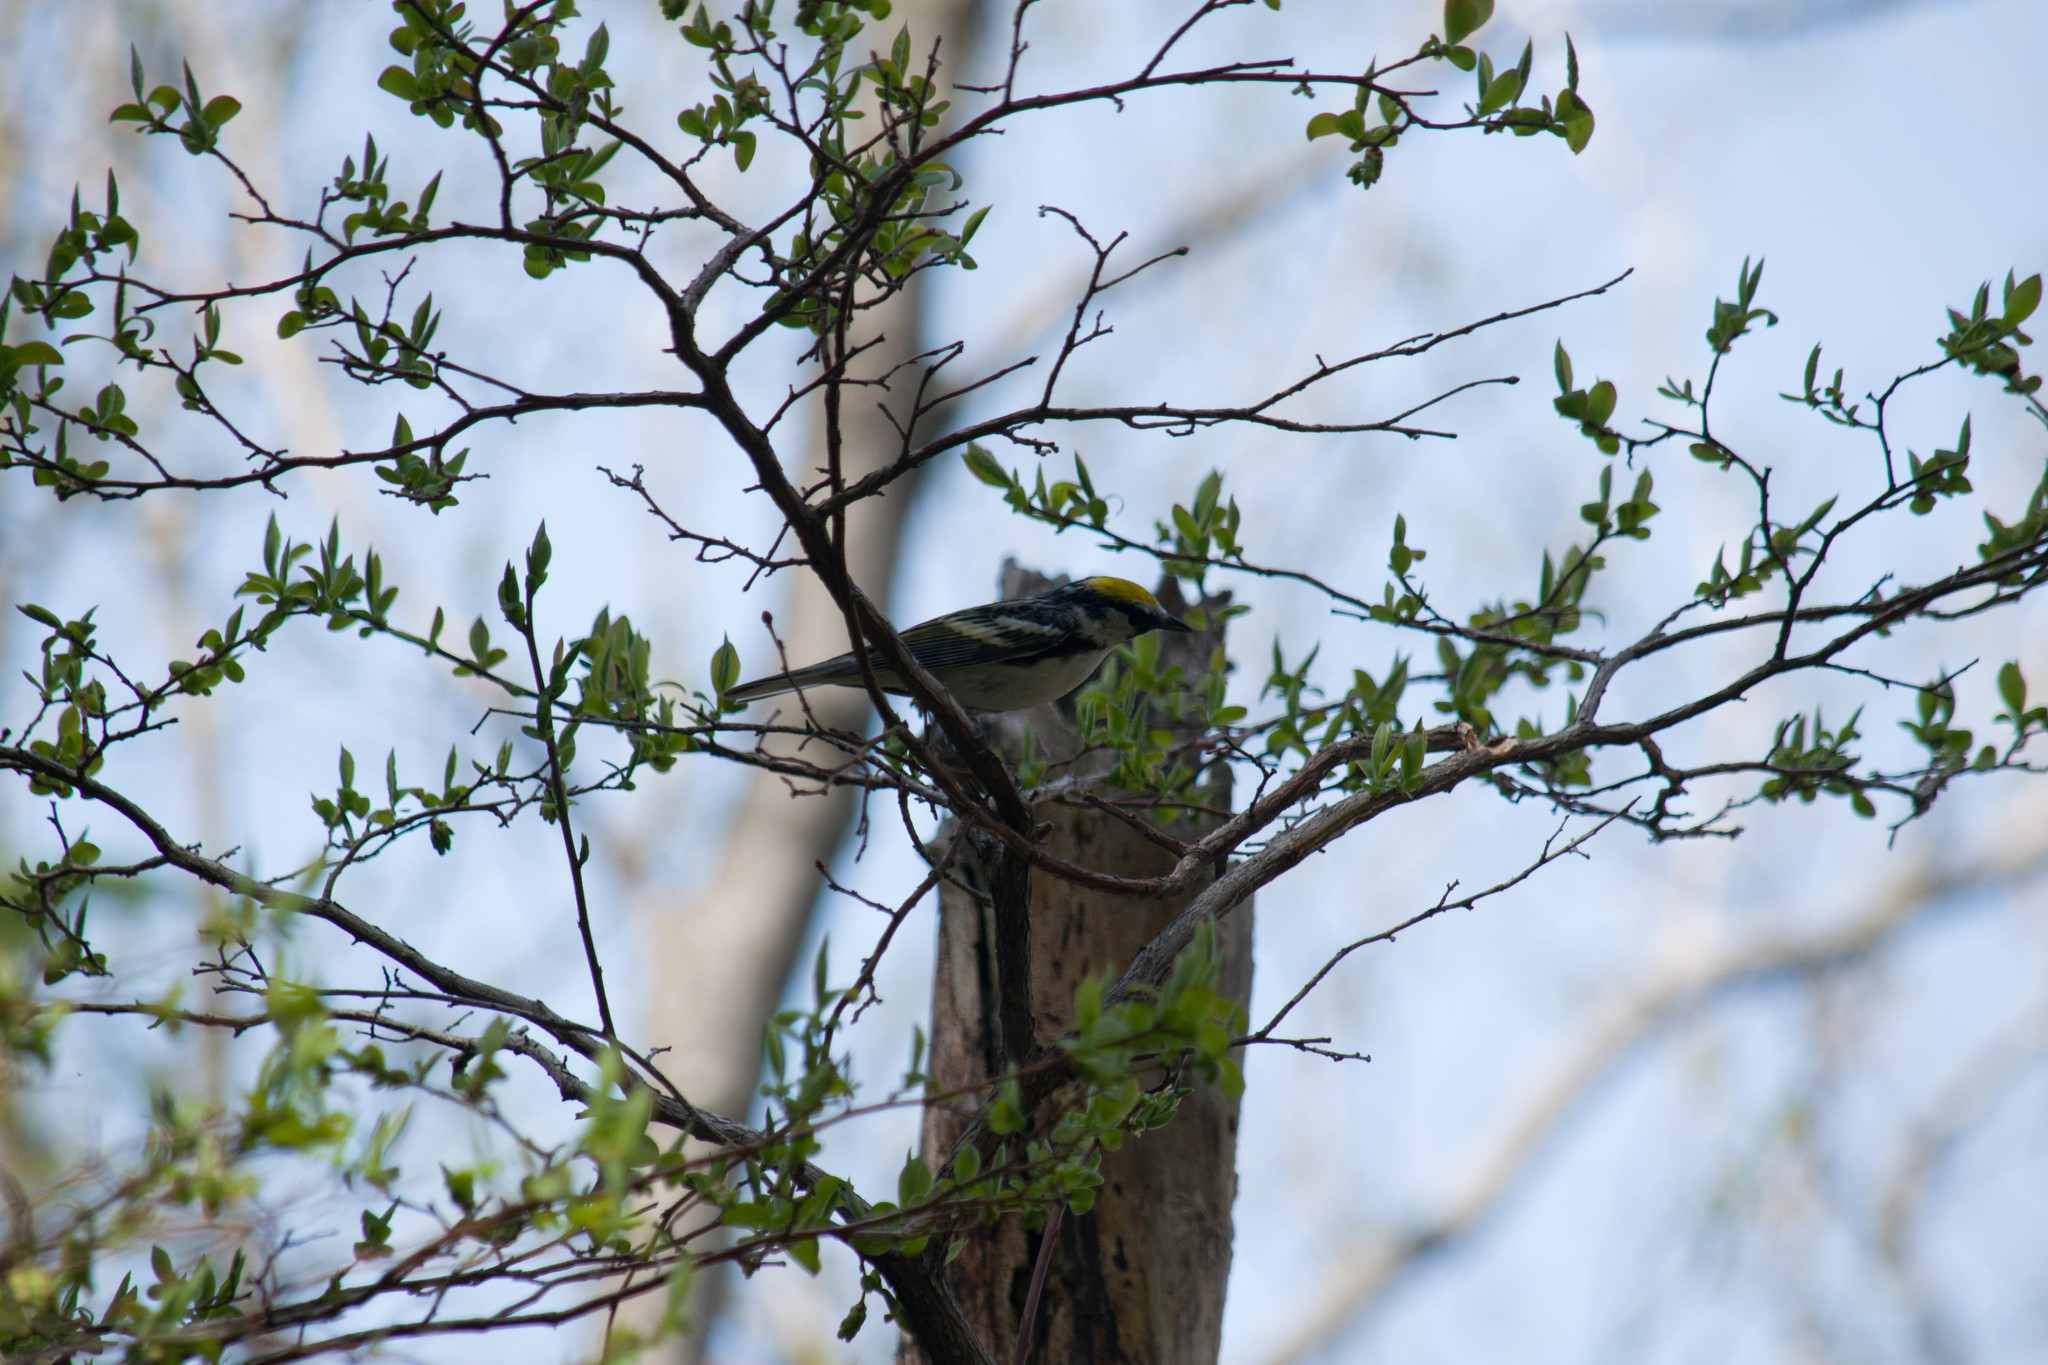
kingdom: Animalia
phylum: Chordata
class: Aves
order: Passeriformes
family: Parulidae
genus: Setophaga
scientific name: Setophaga pensylvanica
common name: Chestnut-sided warbler
